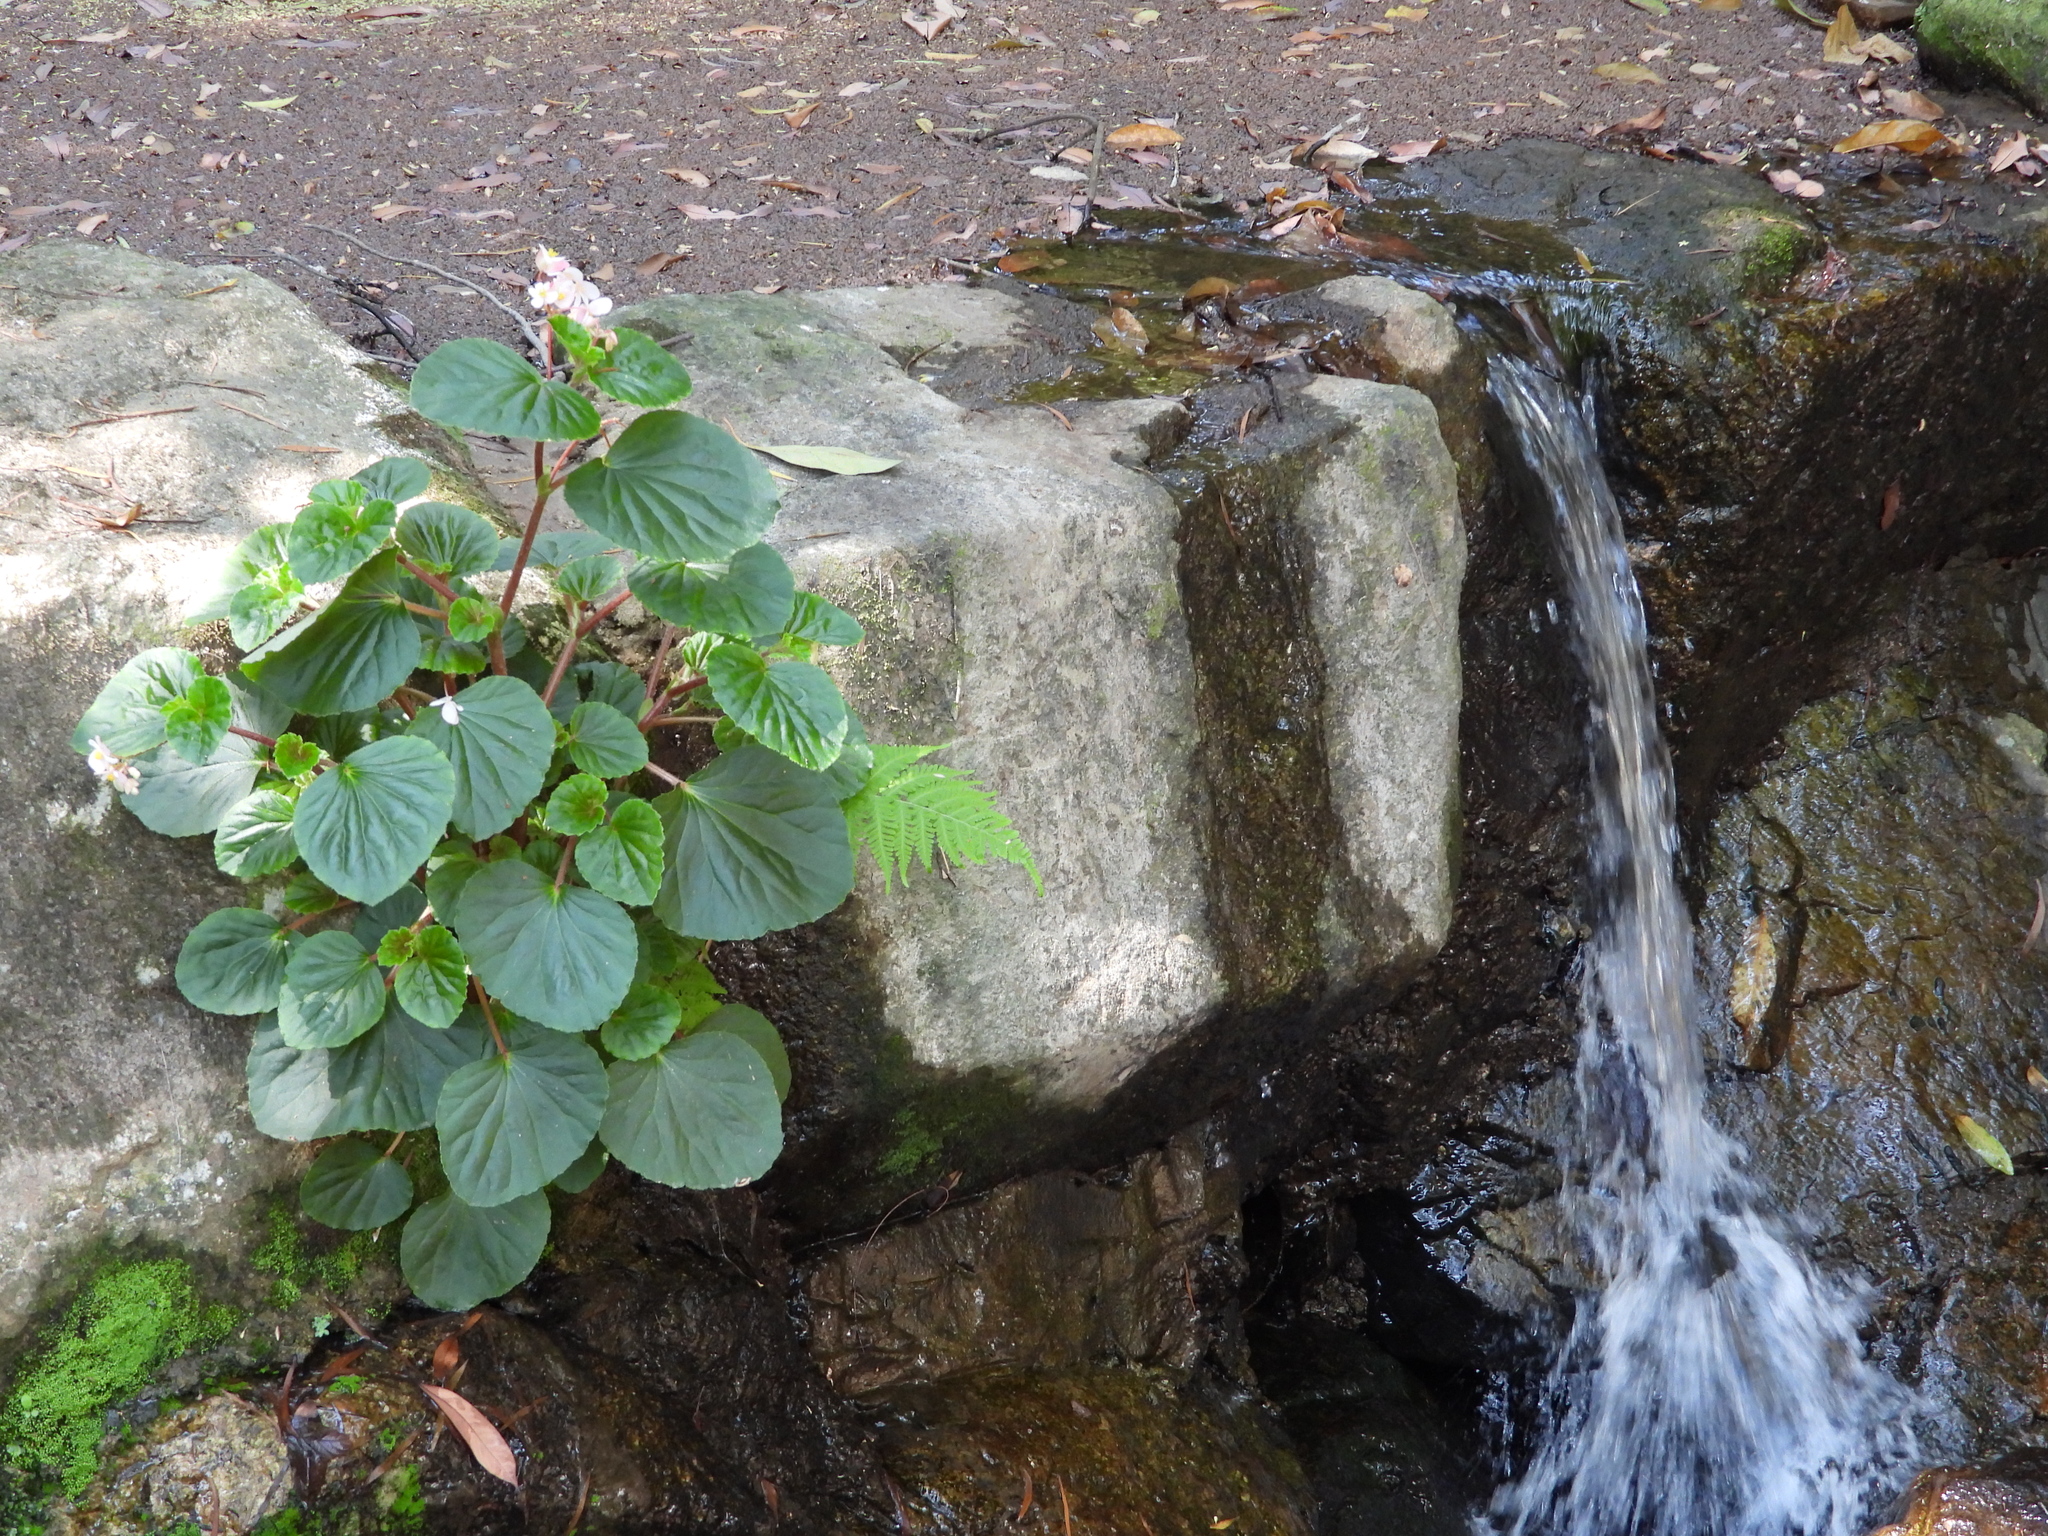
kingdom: Plantae
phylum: Tracheophyta
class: Magnoliopsida
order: Cucurbitales
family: Begoniaceae
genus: Begonia
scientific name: Begonia cucullata
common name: Clubbed begonia
